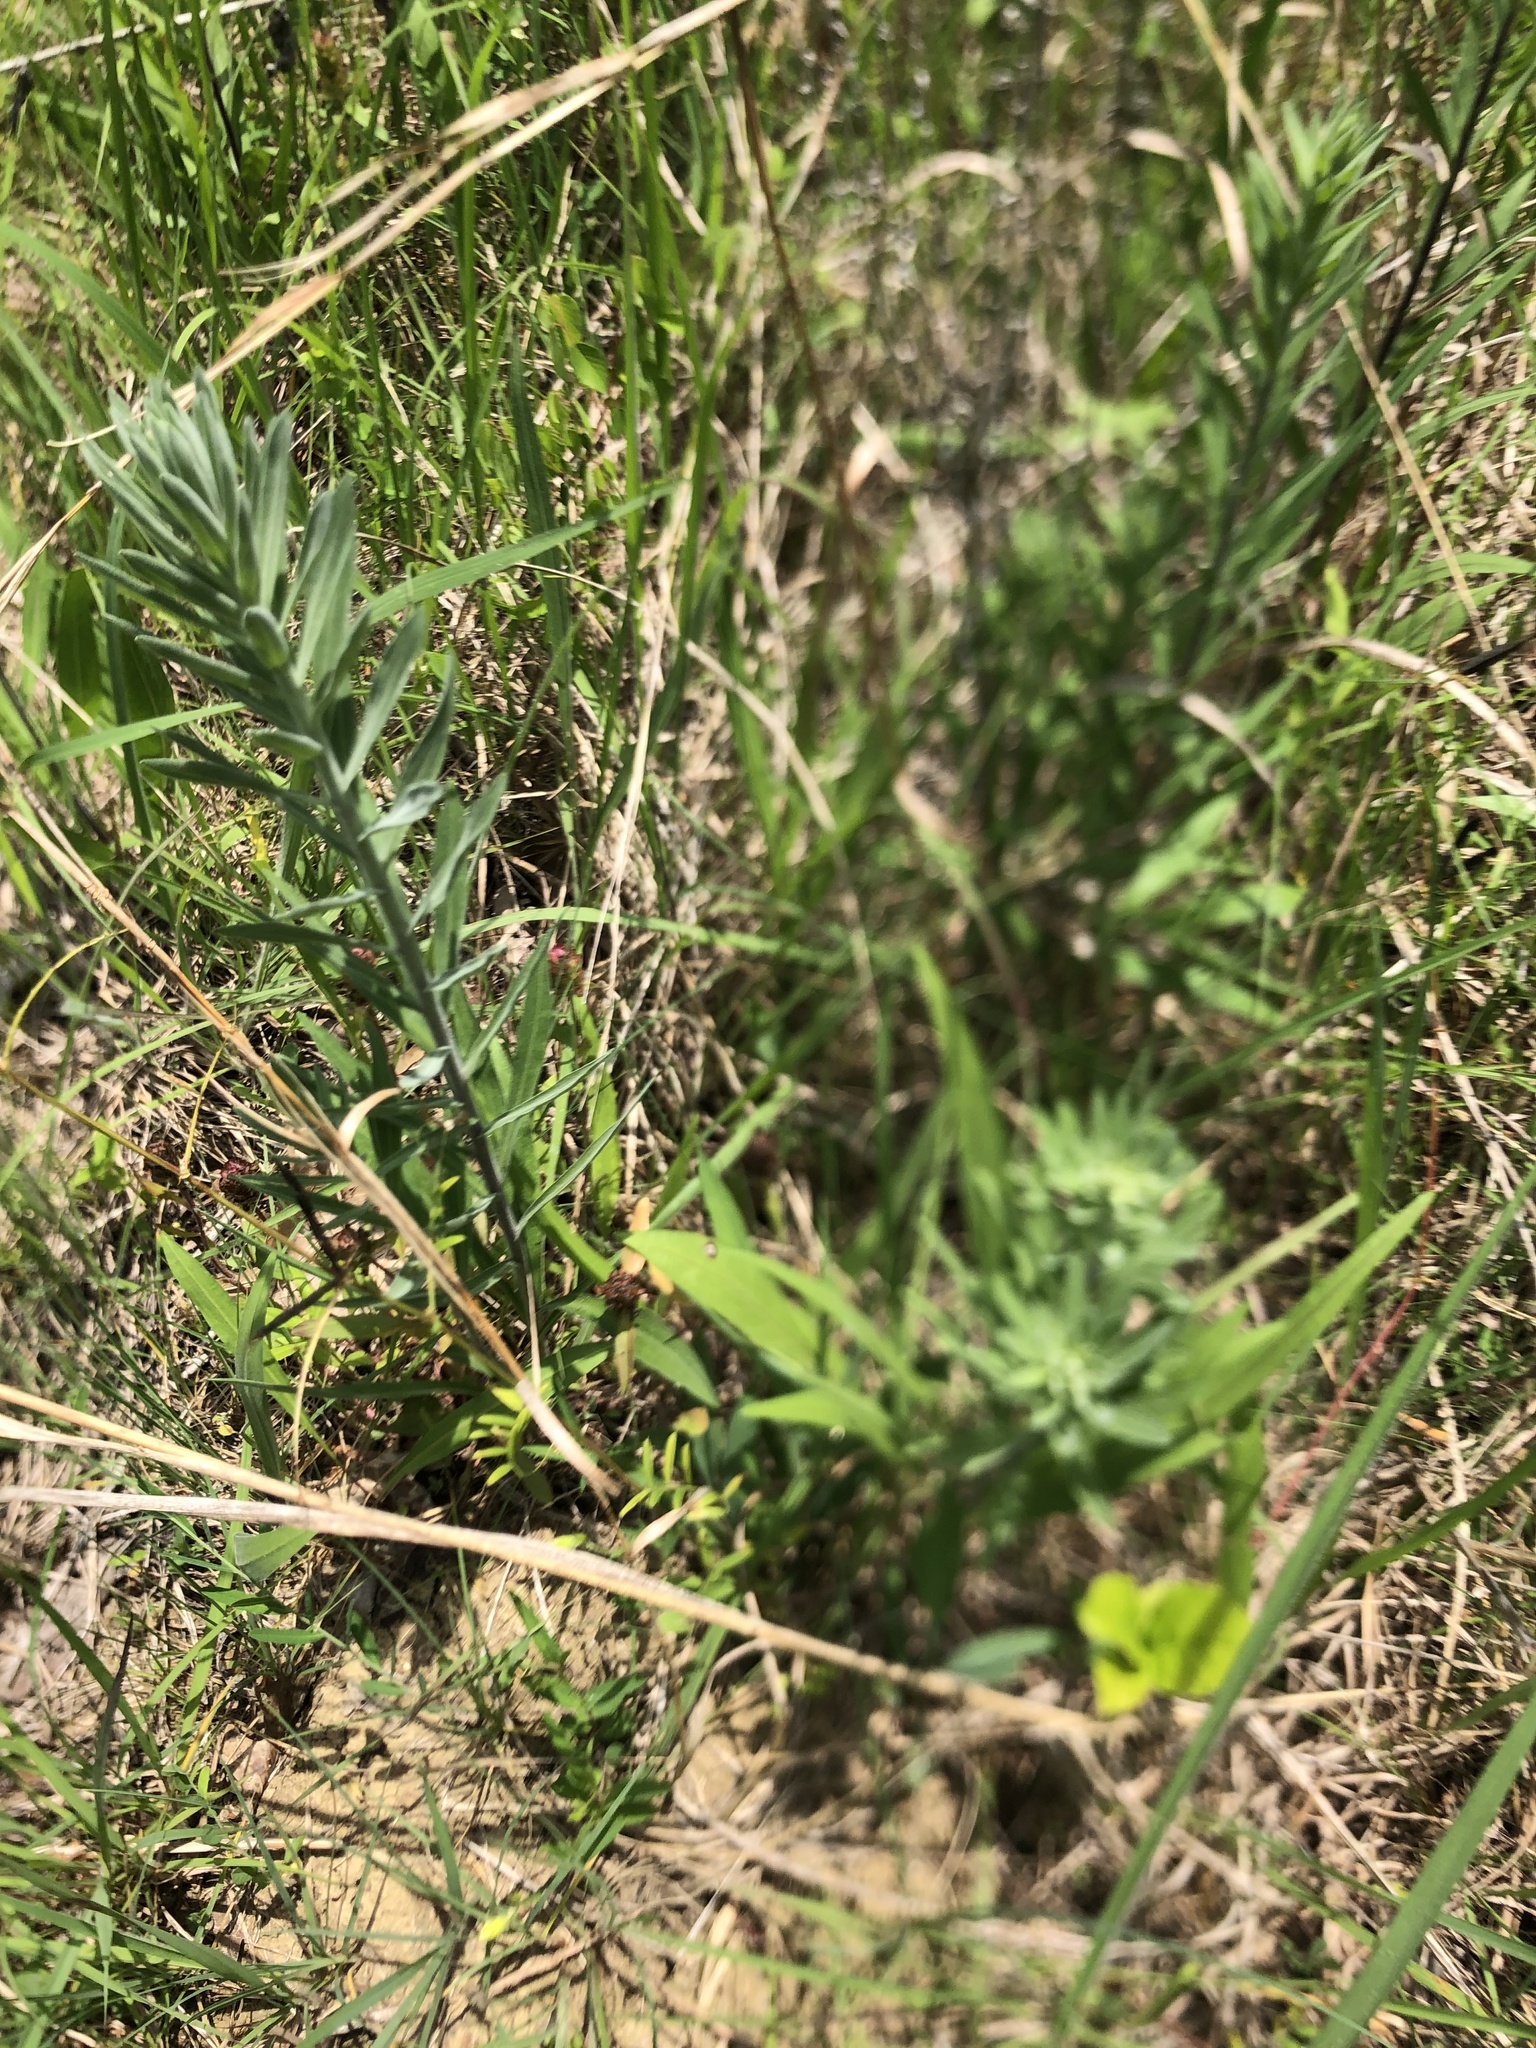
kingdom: Plantae
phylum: Tracheophyta
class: Magnoliopsida
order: Asterales
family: Asteraceae
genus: Liatris
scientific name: Liatris squarrulosa
